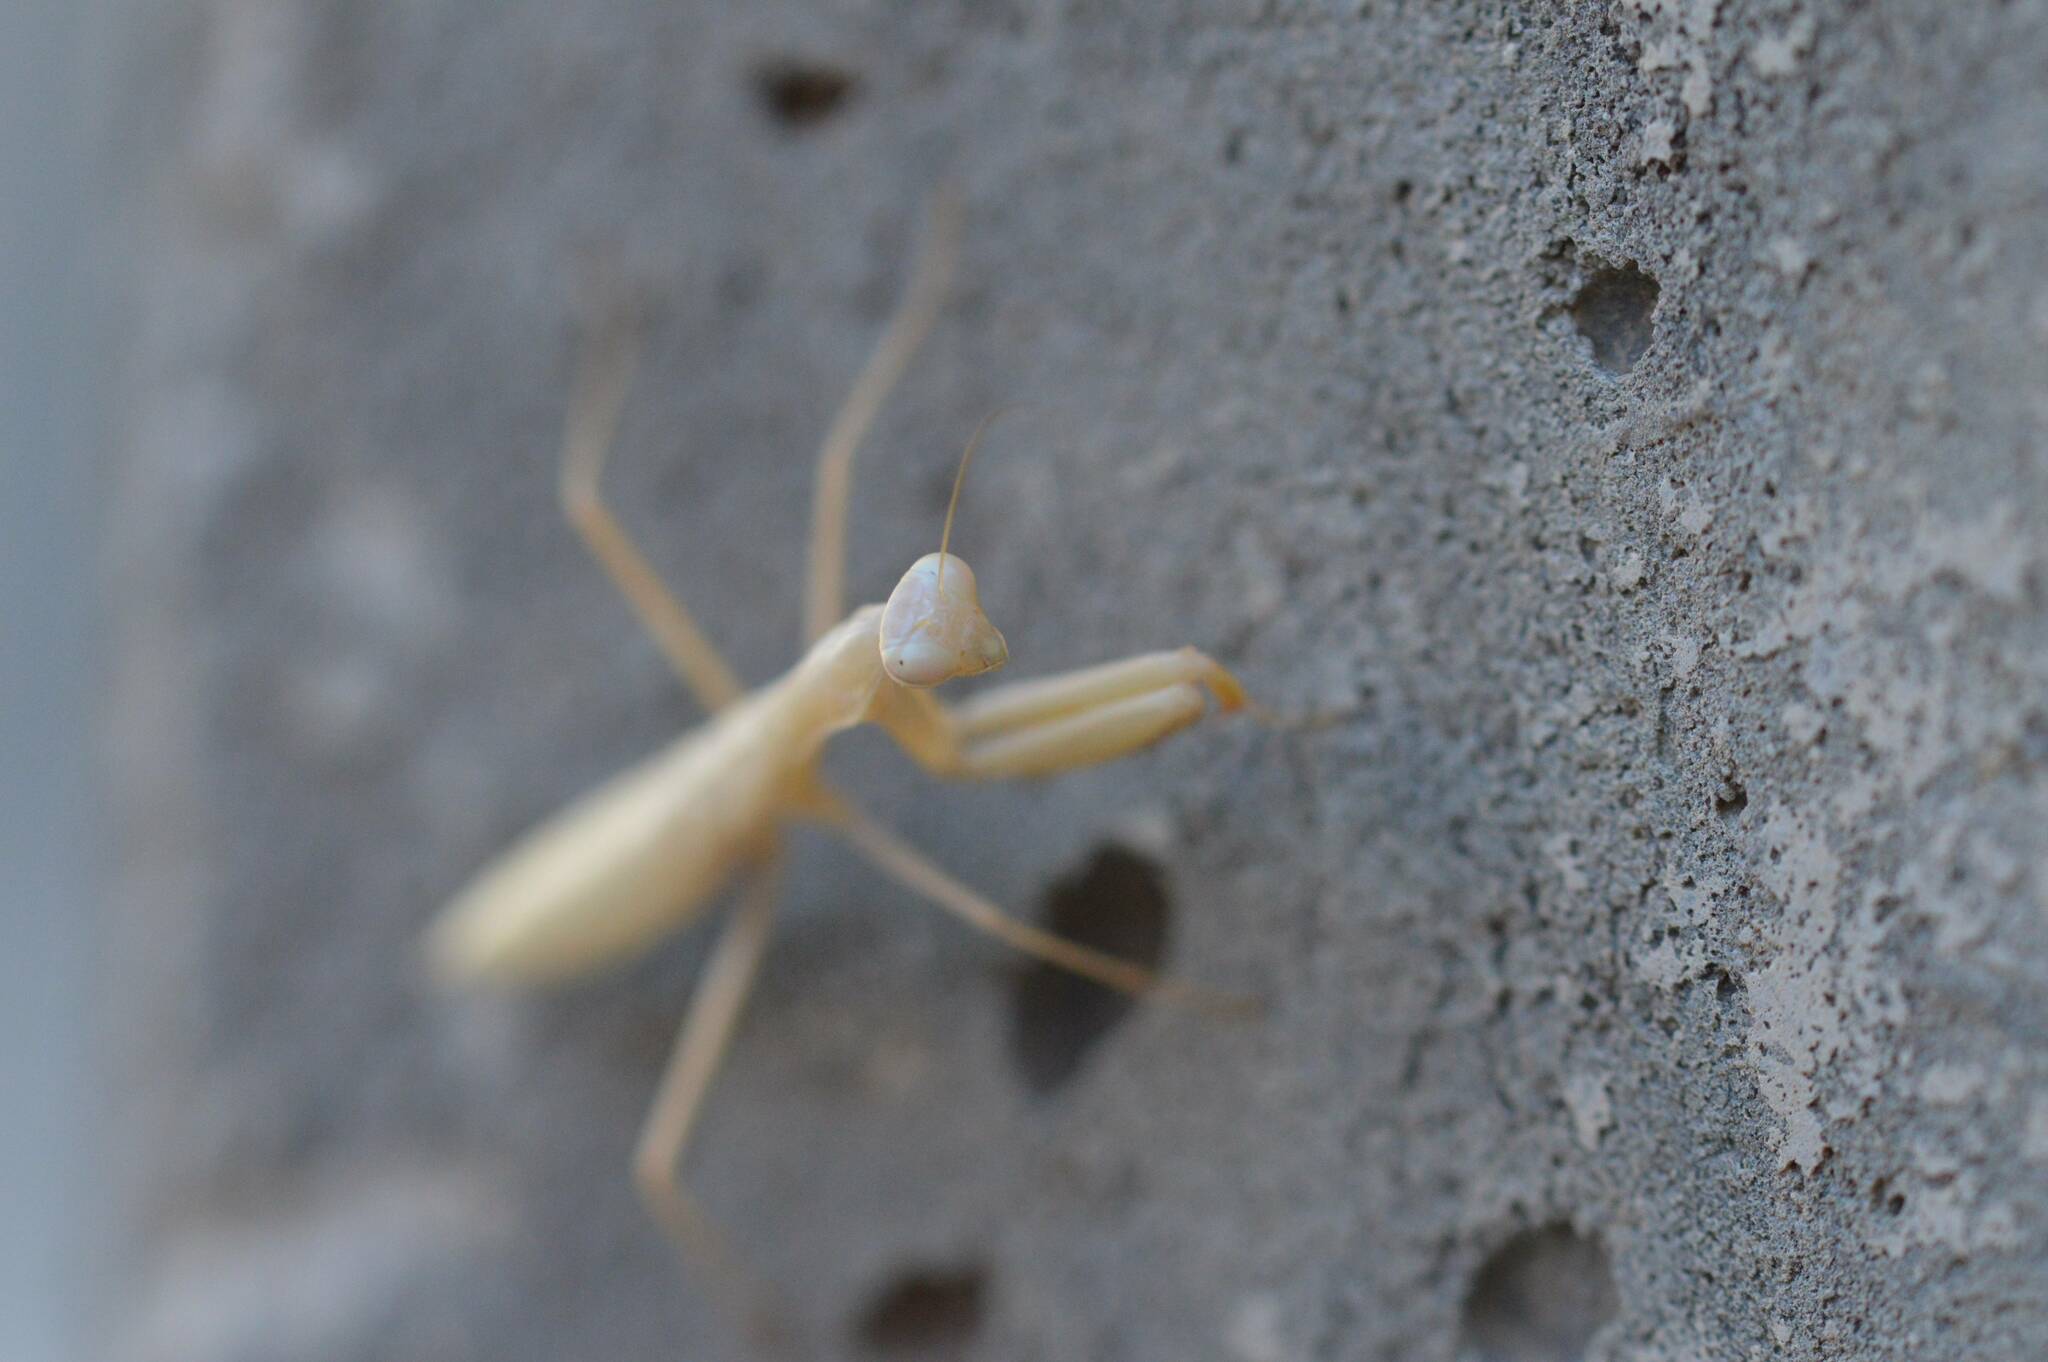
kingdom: Animalia
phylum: Arthropoda
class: Insecta
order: Mantodea
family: Mantidae
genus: Mantis
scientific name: Mantis religiosa
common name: Praying mantis
